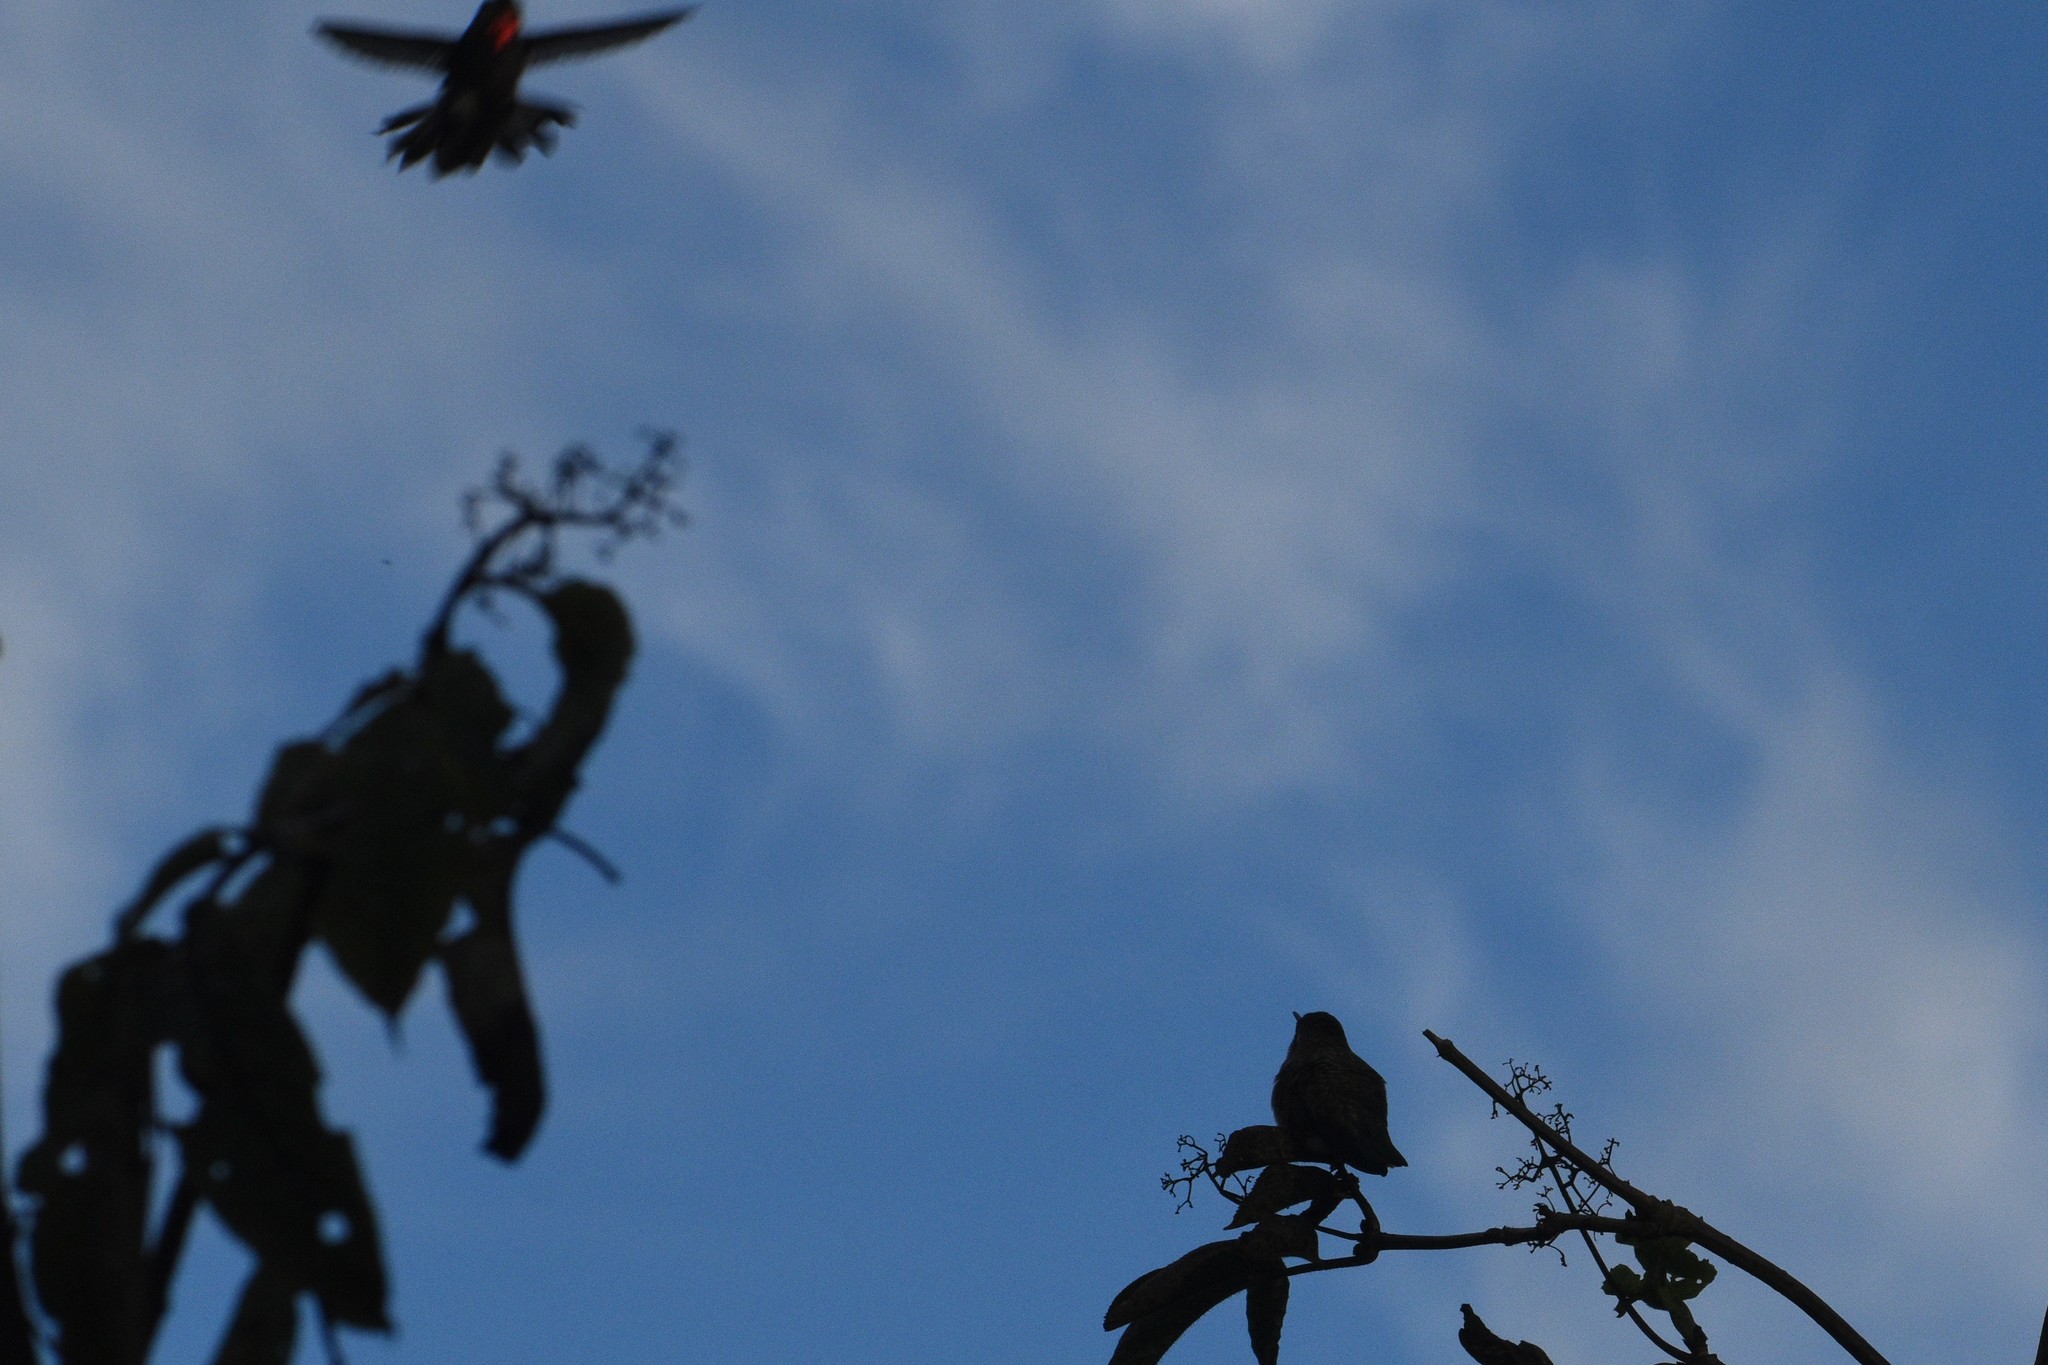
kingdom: Animalia
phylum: Chordata
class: Aves
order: Apodiformes
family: Trochilidae
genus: Calypte
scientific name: Calypte anna
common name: Anna's hummingbird
